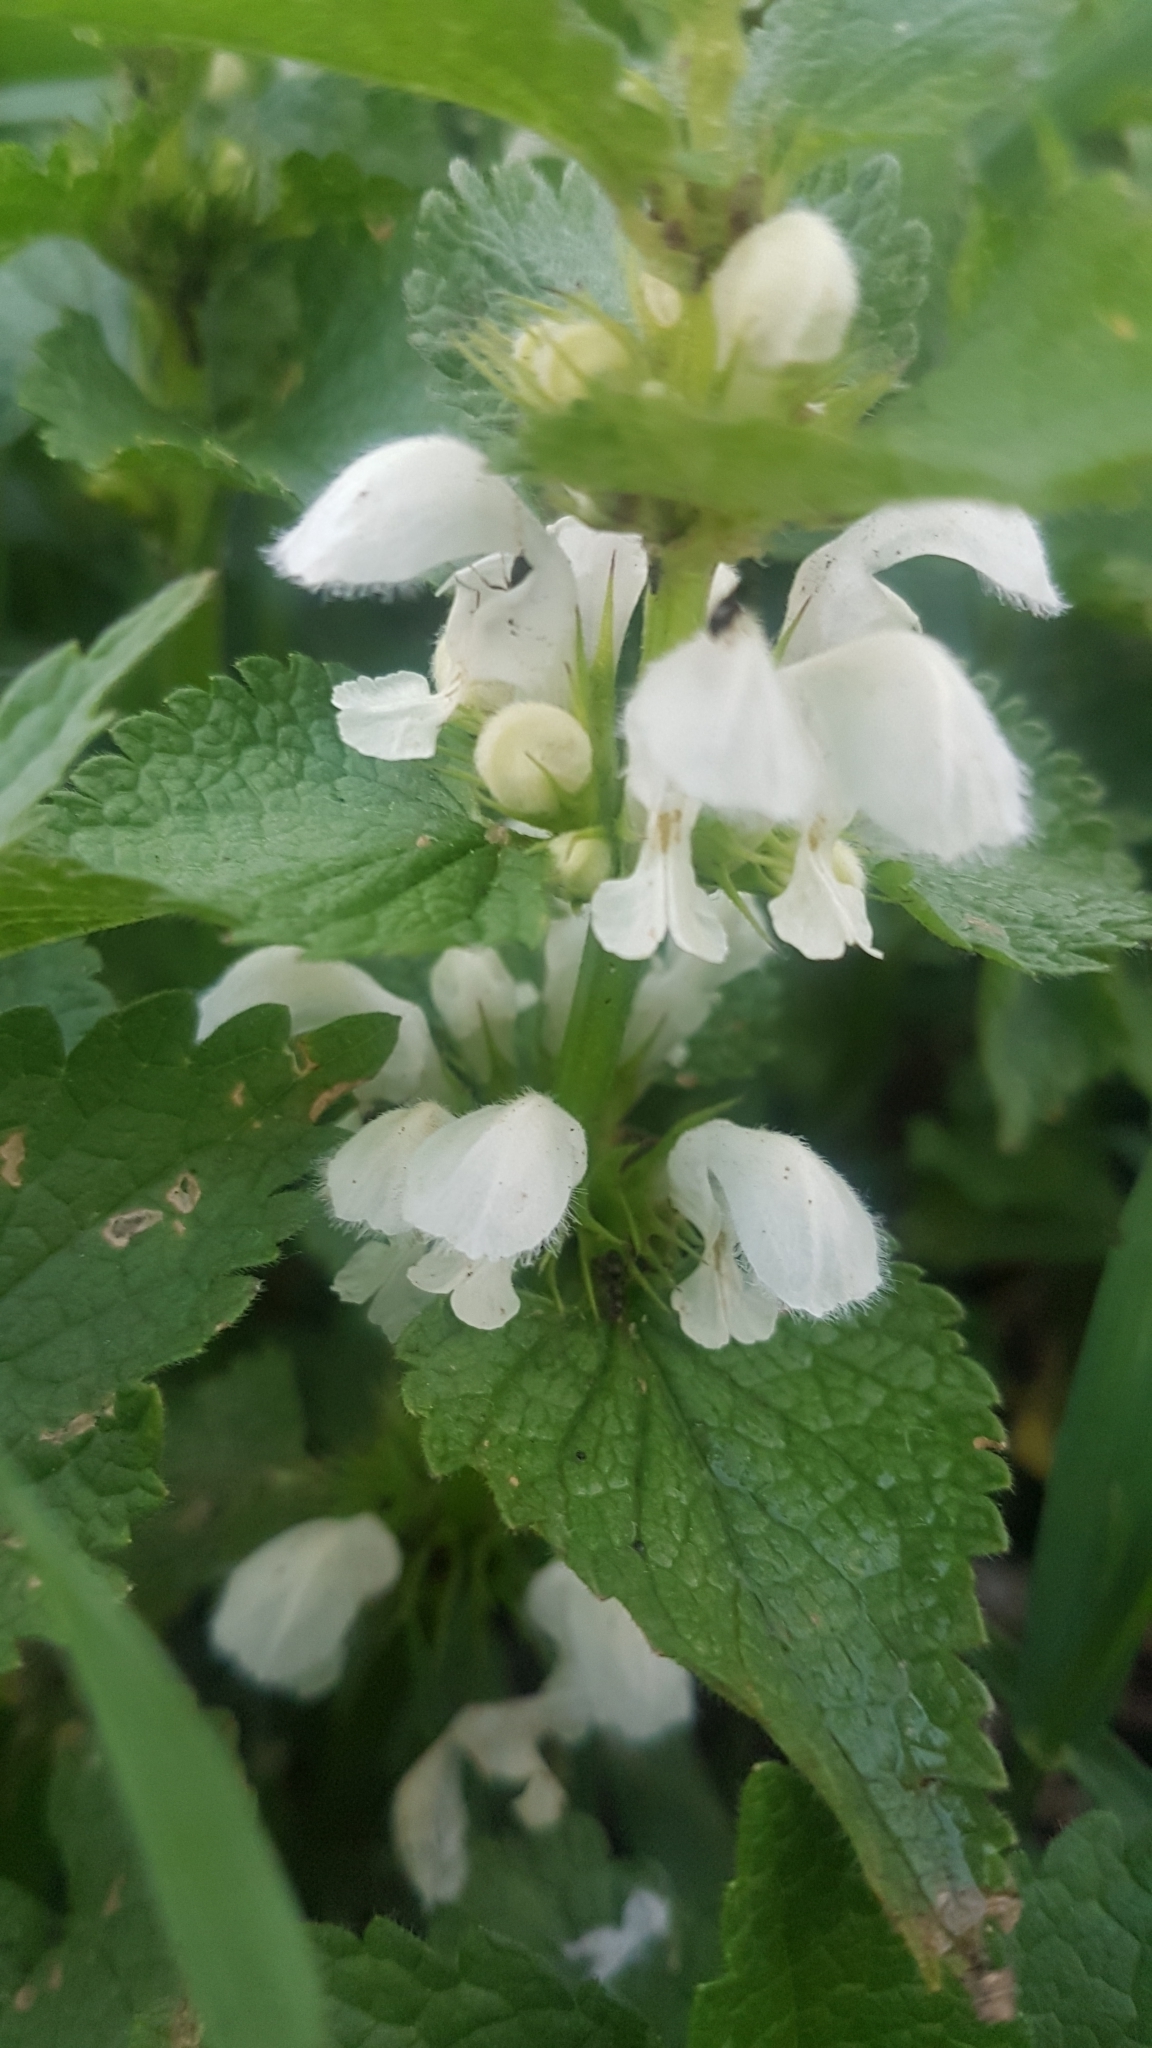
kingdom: Plantae
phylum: Tracheophyta
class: Magnoliopsida
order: Lamiales
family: Lamiaceae
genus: Lamium
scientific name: Lamium album
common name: White dead-nettle
